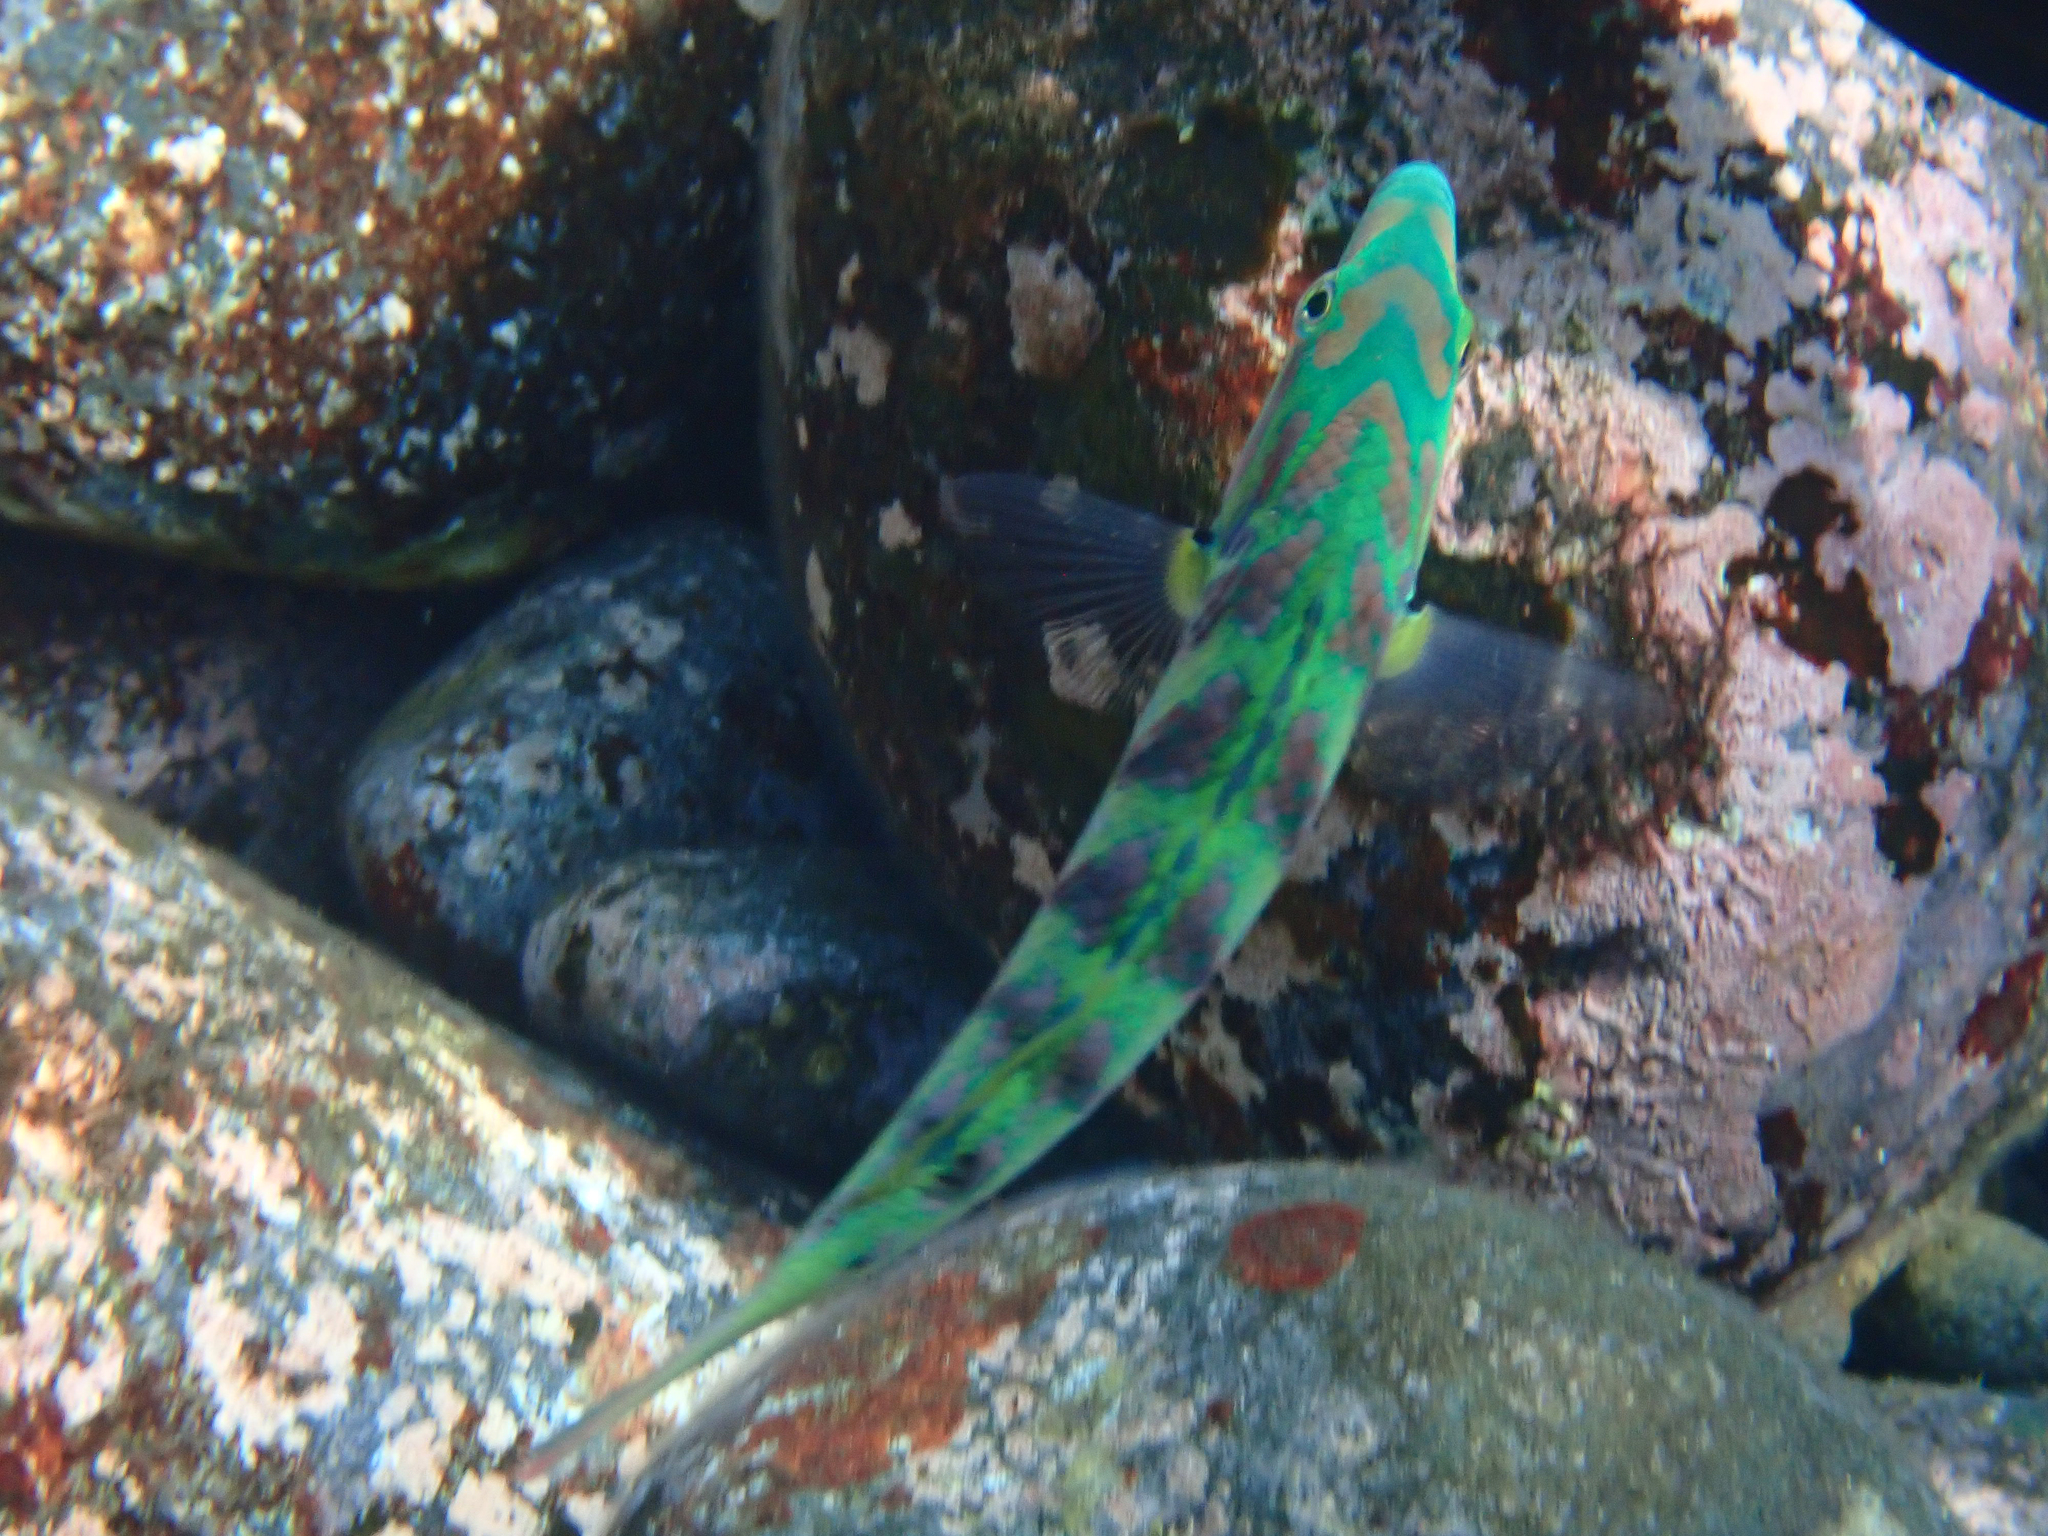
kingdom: Animalia
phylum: Chordata
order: Perciformes
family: Labridae
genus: Thalassoma
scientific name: Thalassoma hardwicke
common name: Sixbar wrasse
